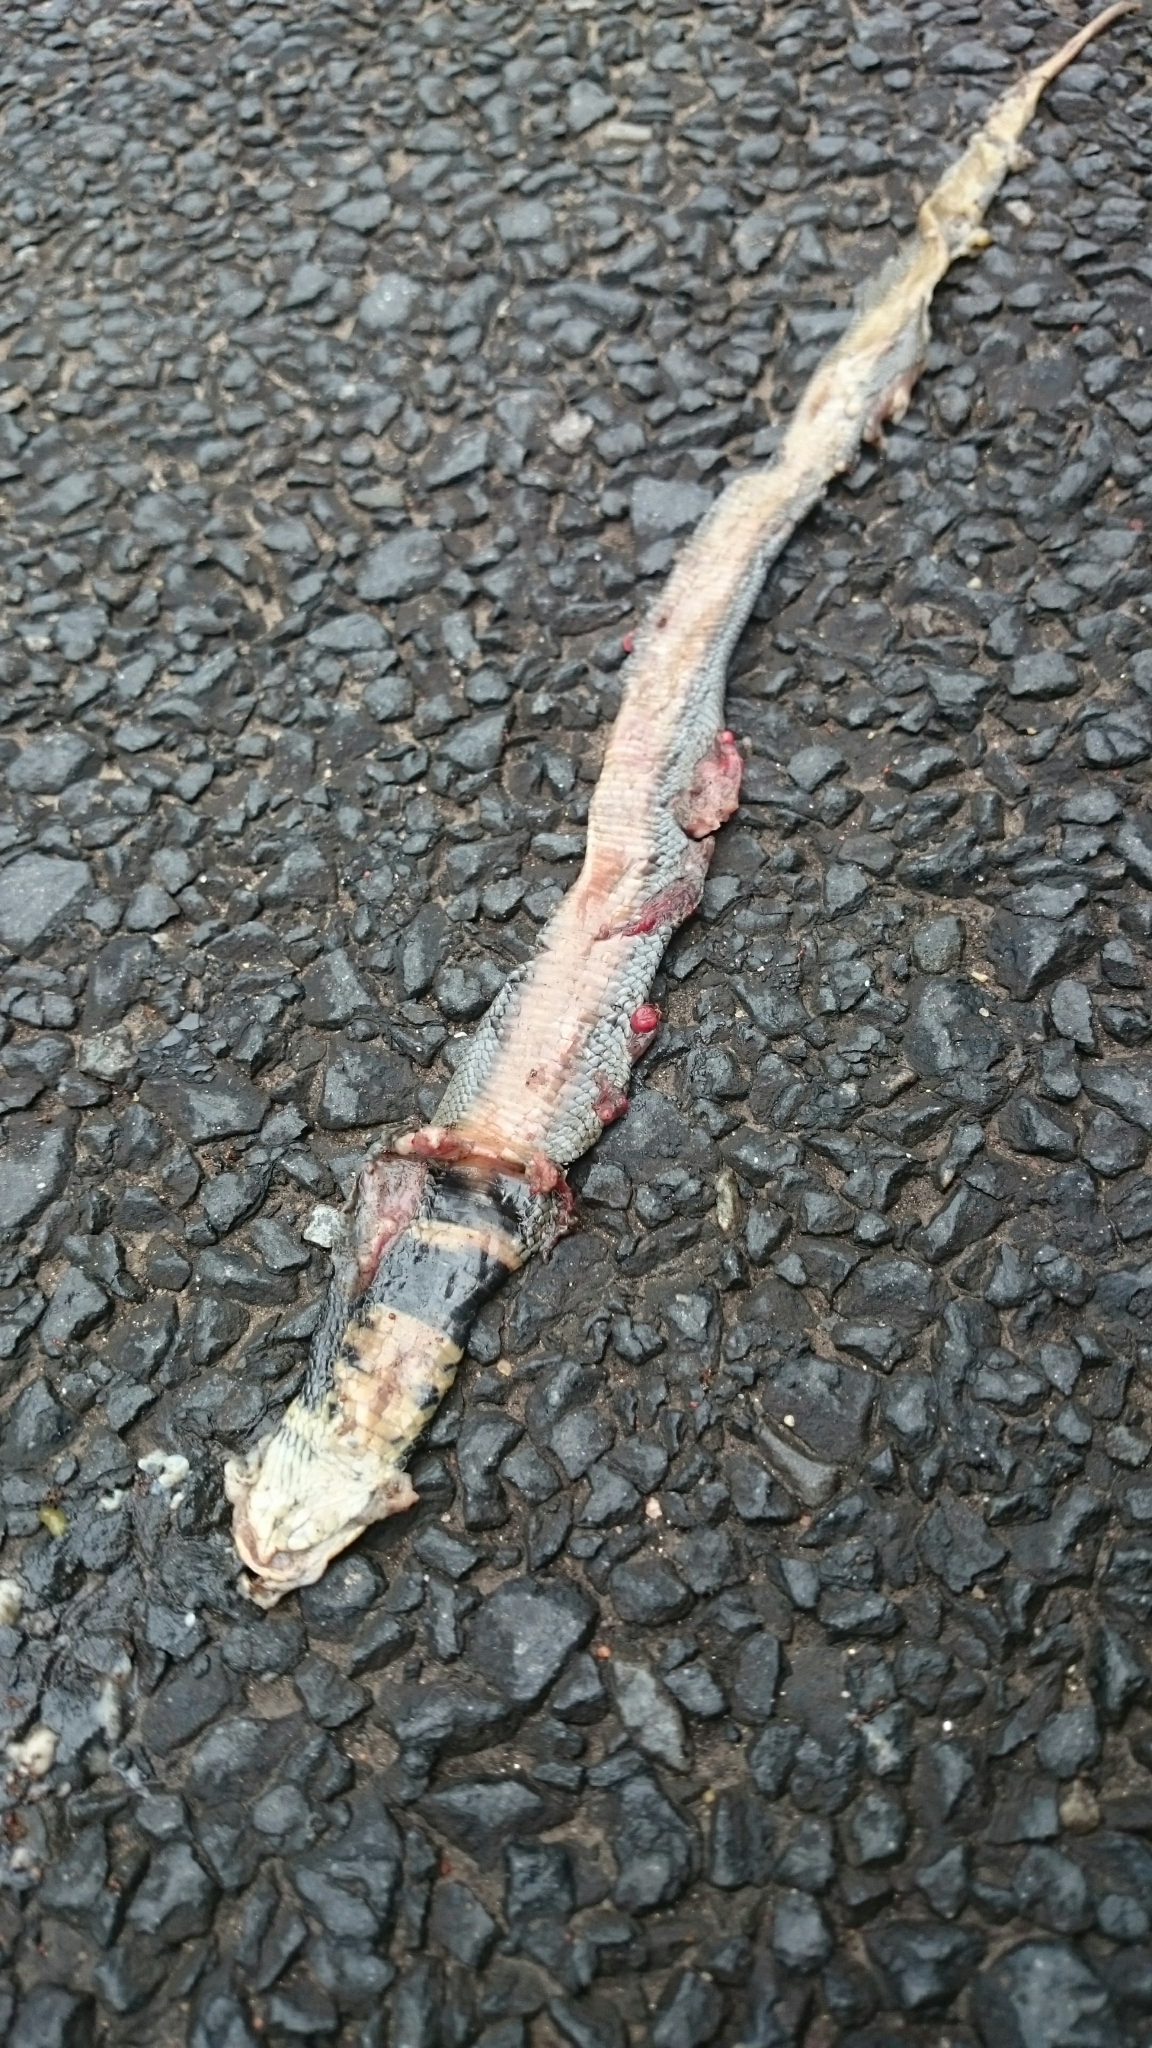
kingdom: Animalia
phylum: Chordata
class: Squamata
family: Elapidae
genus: Naja
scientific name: Naja mossambica
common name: Mozambique spitting cobra
